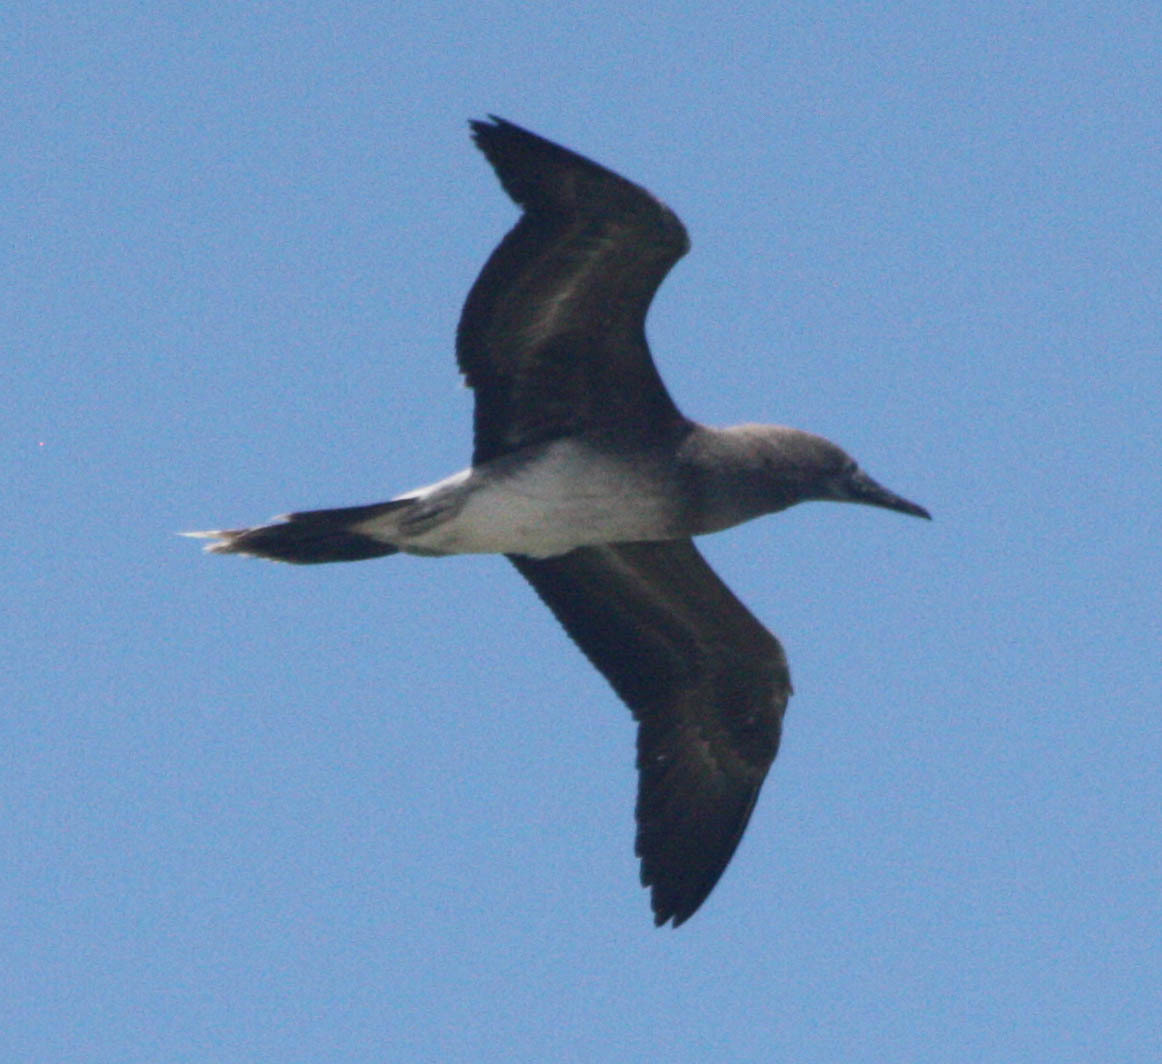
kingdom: Animalia
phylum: Chordata
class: Aves
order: Suliformes
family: Sulidae
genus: Sula
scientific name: Sula sula
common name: Red-footed booby
